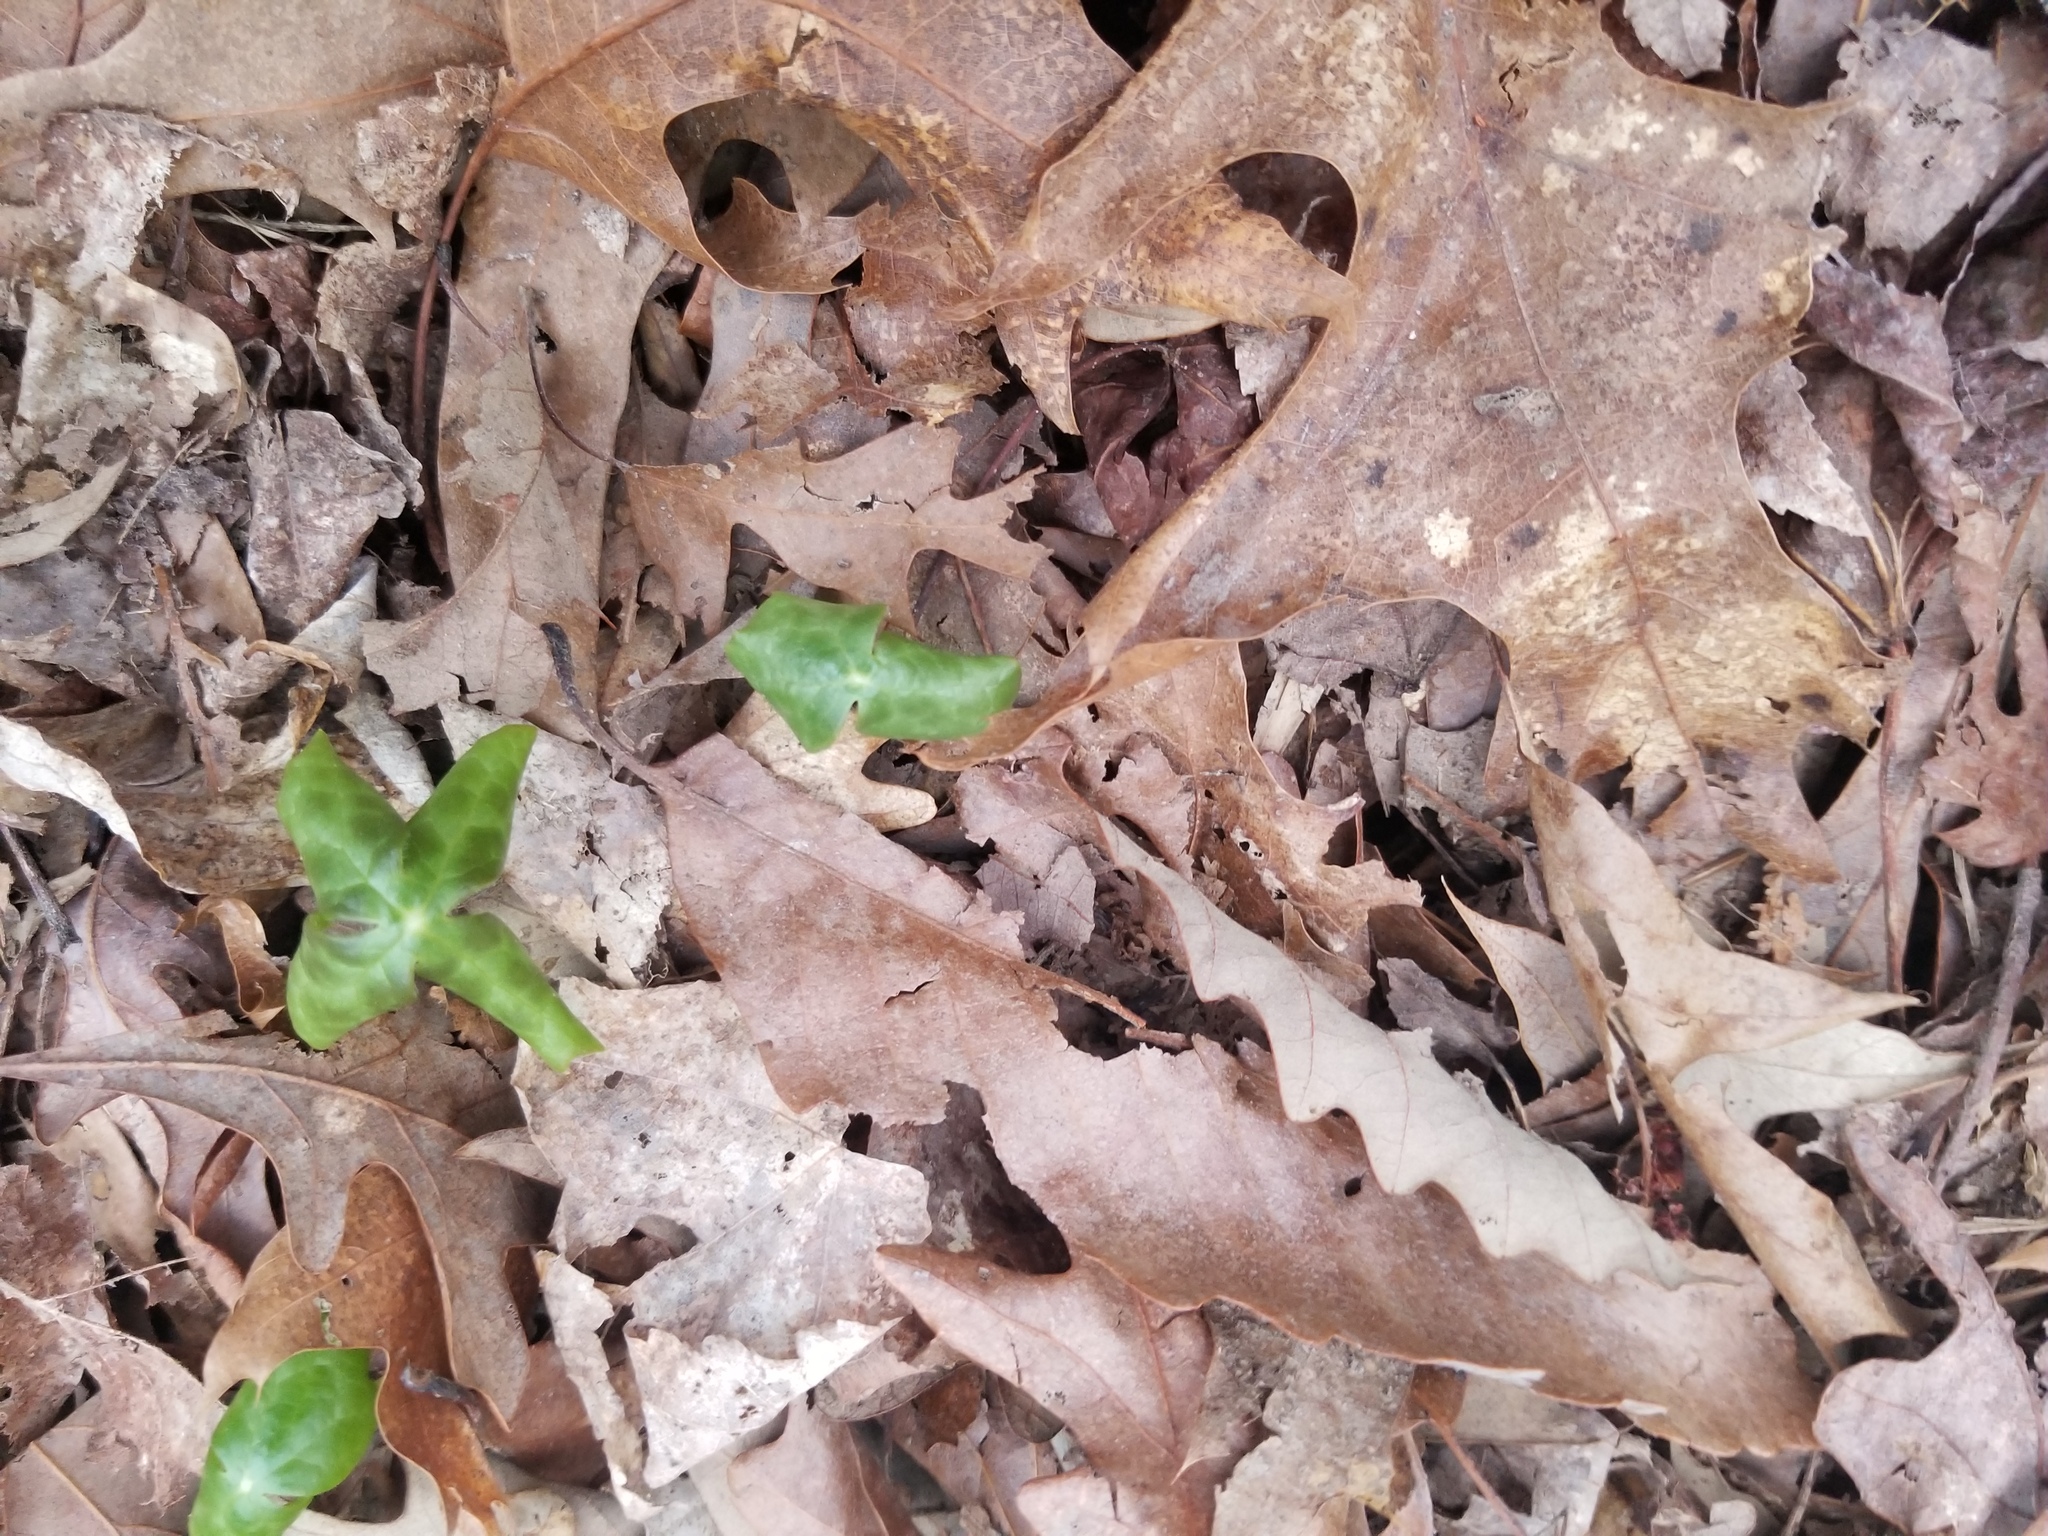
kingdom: Plantae
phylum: Tracheophyta
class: Magnoliopsida
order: Ranunculales
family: Berberidaceae
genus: Podophyllum
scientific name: Podophyllum peltatum
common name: Wild mandrake
